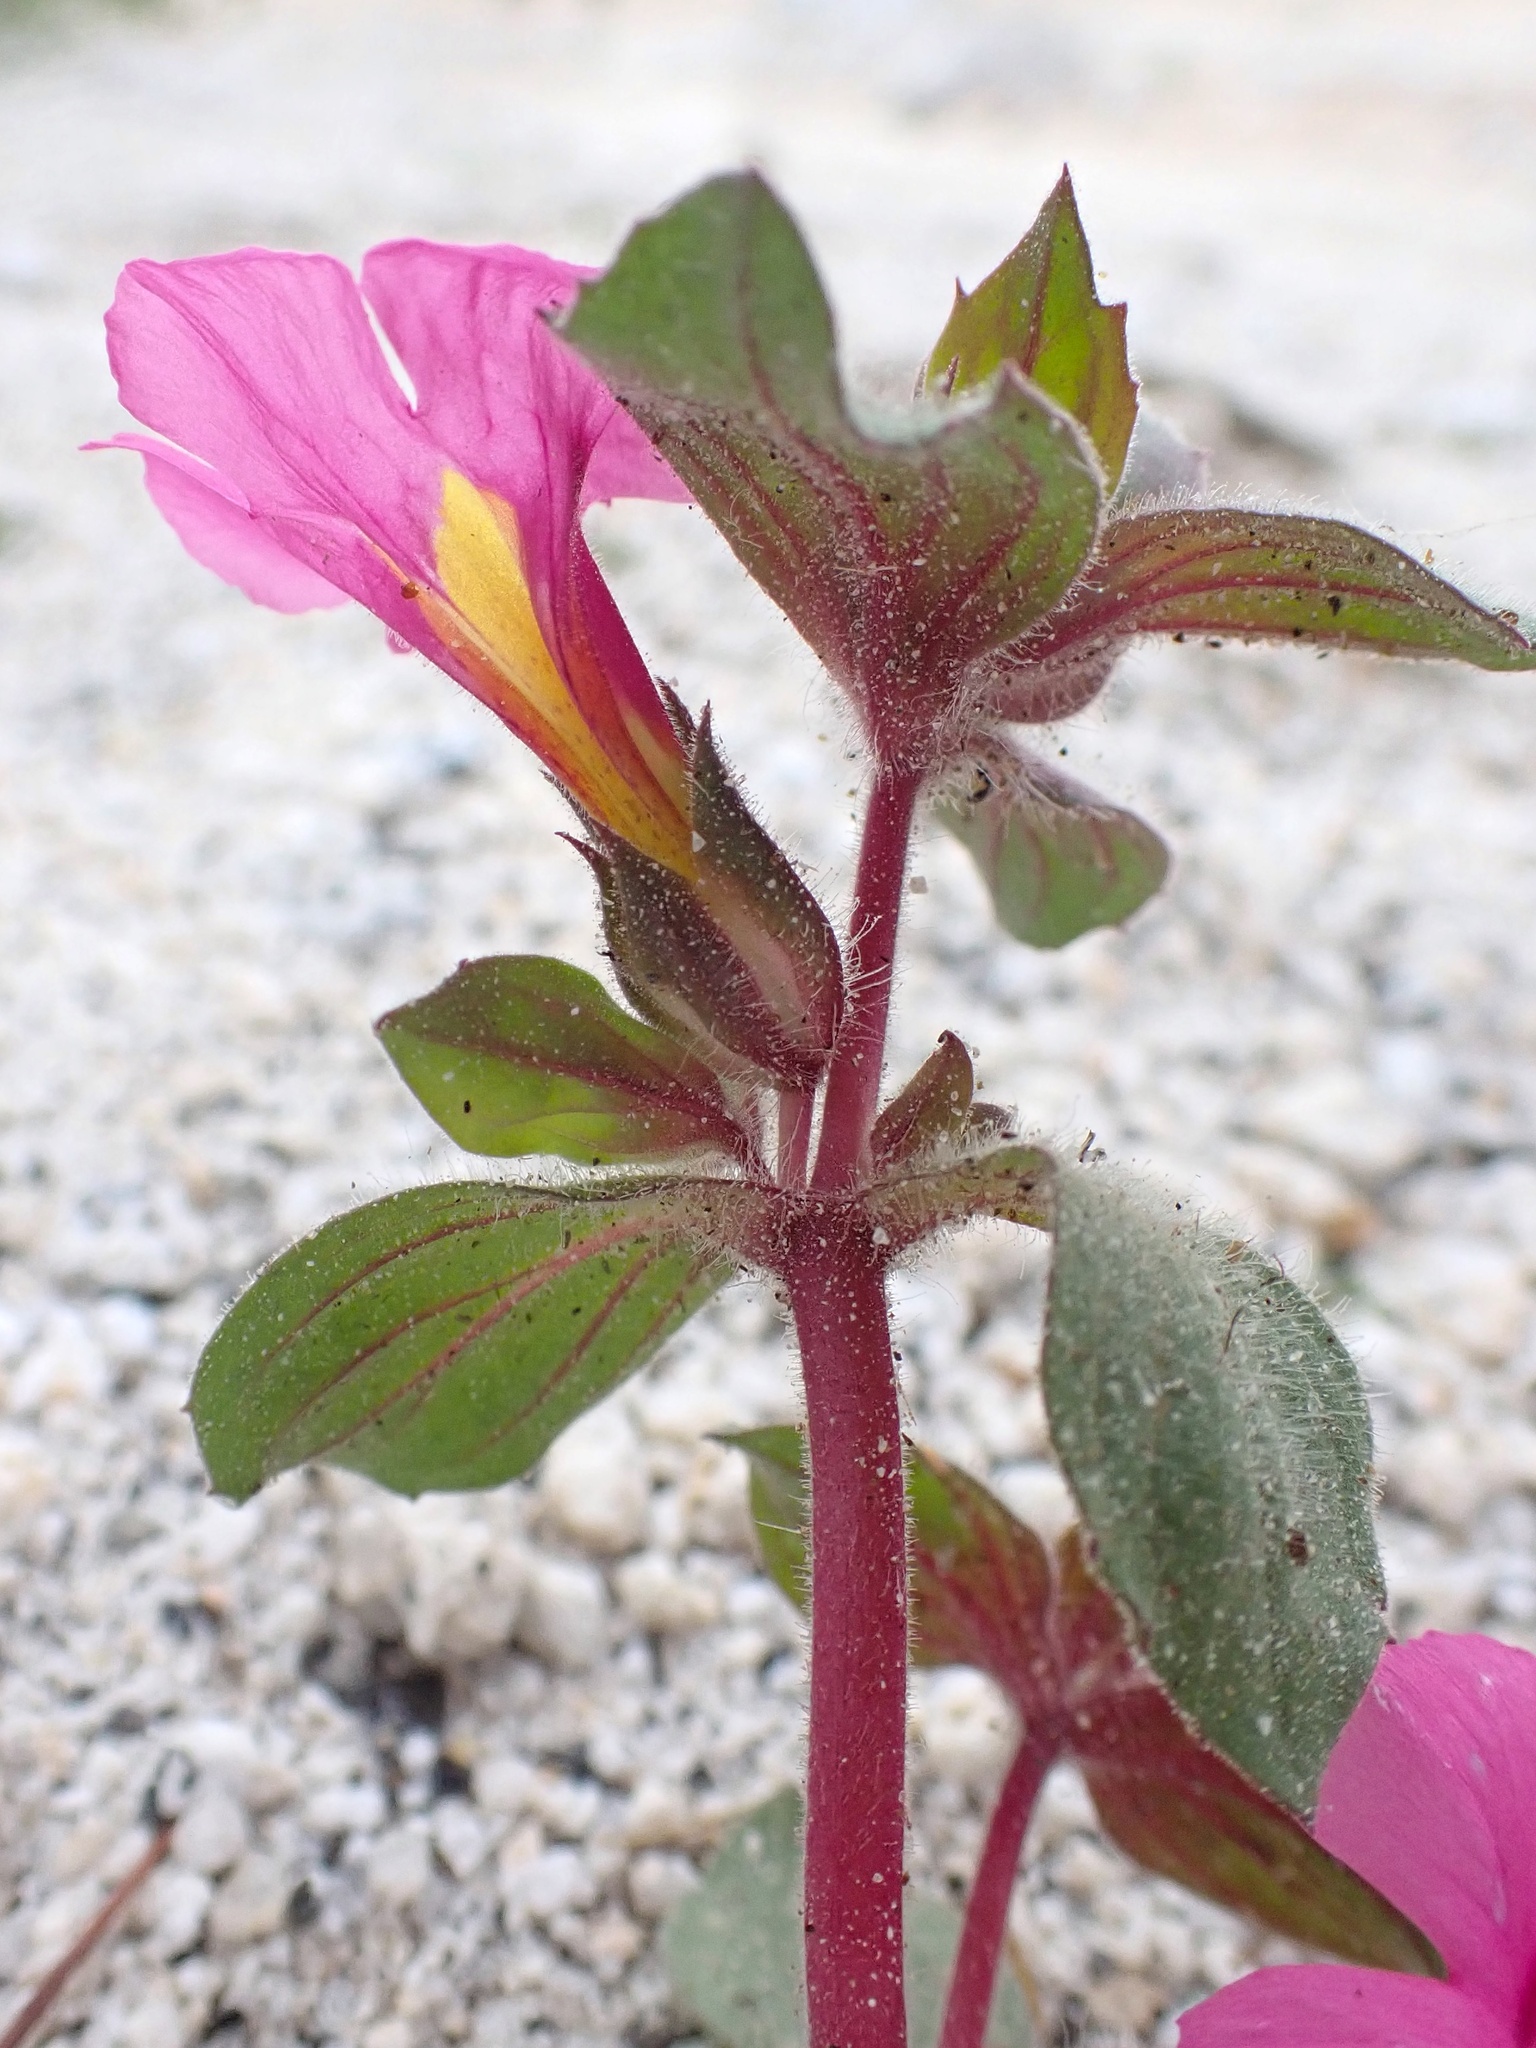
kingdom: Plantae
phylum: Tracheophyta
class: Magnoliopsida
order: Lamiales
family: Phrymaceae
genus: Diplacus
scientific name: Diplacus bigelovii
